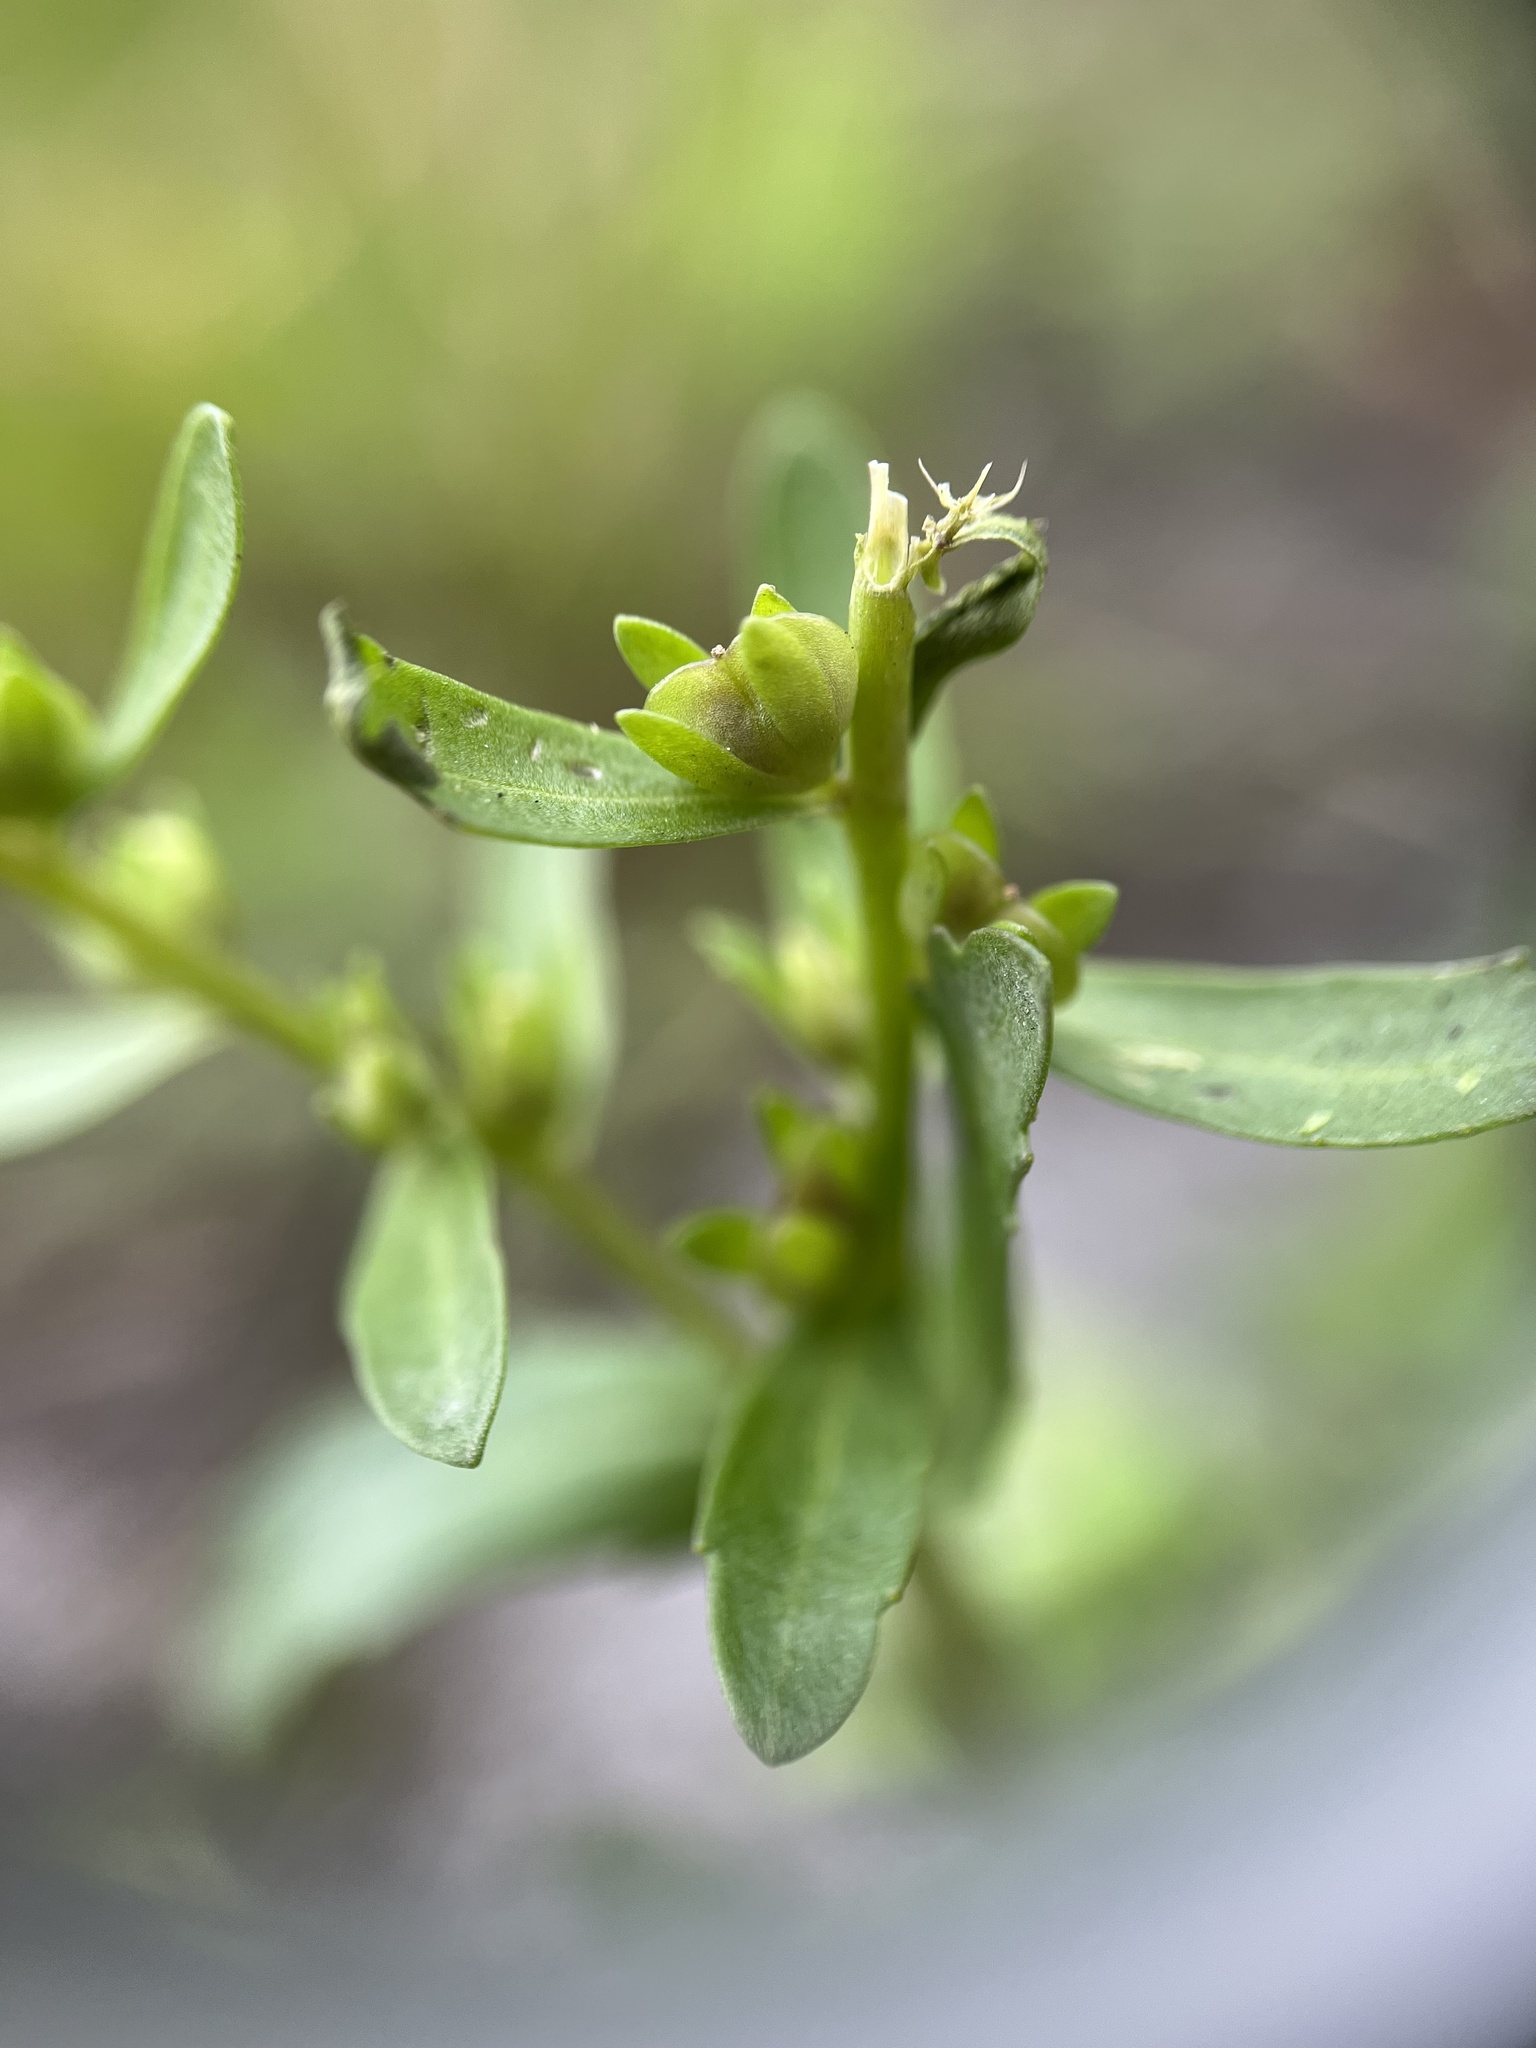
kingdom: Plantae
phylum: Tracheophyta
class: Magnoliopsida
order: Lamiales
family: Plantaginaceae
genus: Veronica
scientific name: Veronica peregrina
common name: Neckweed
